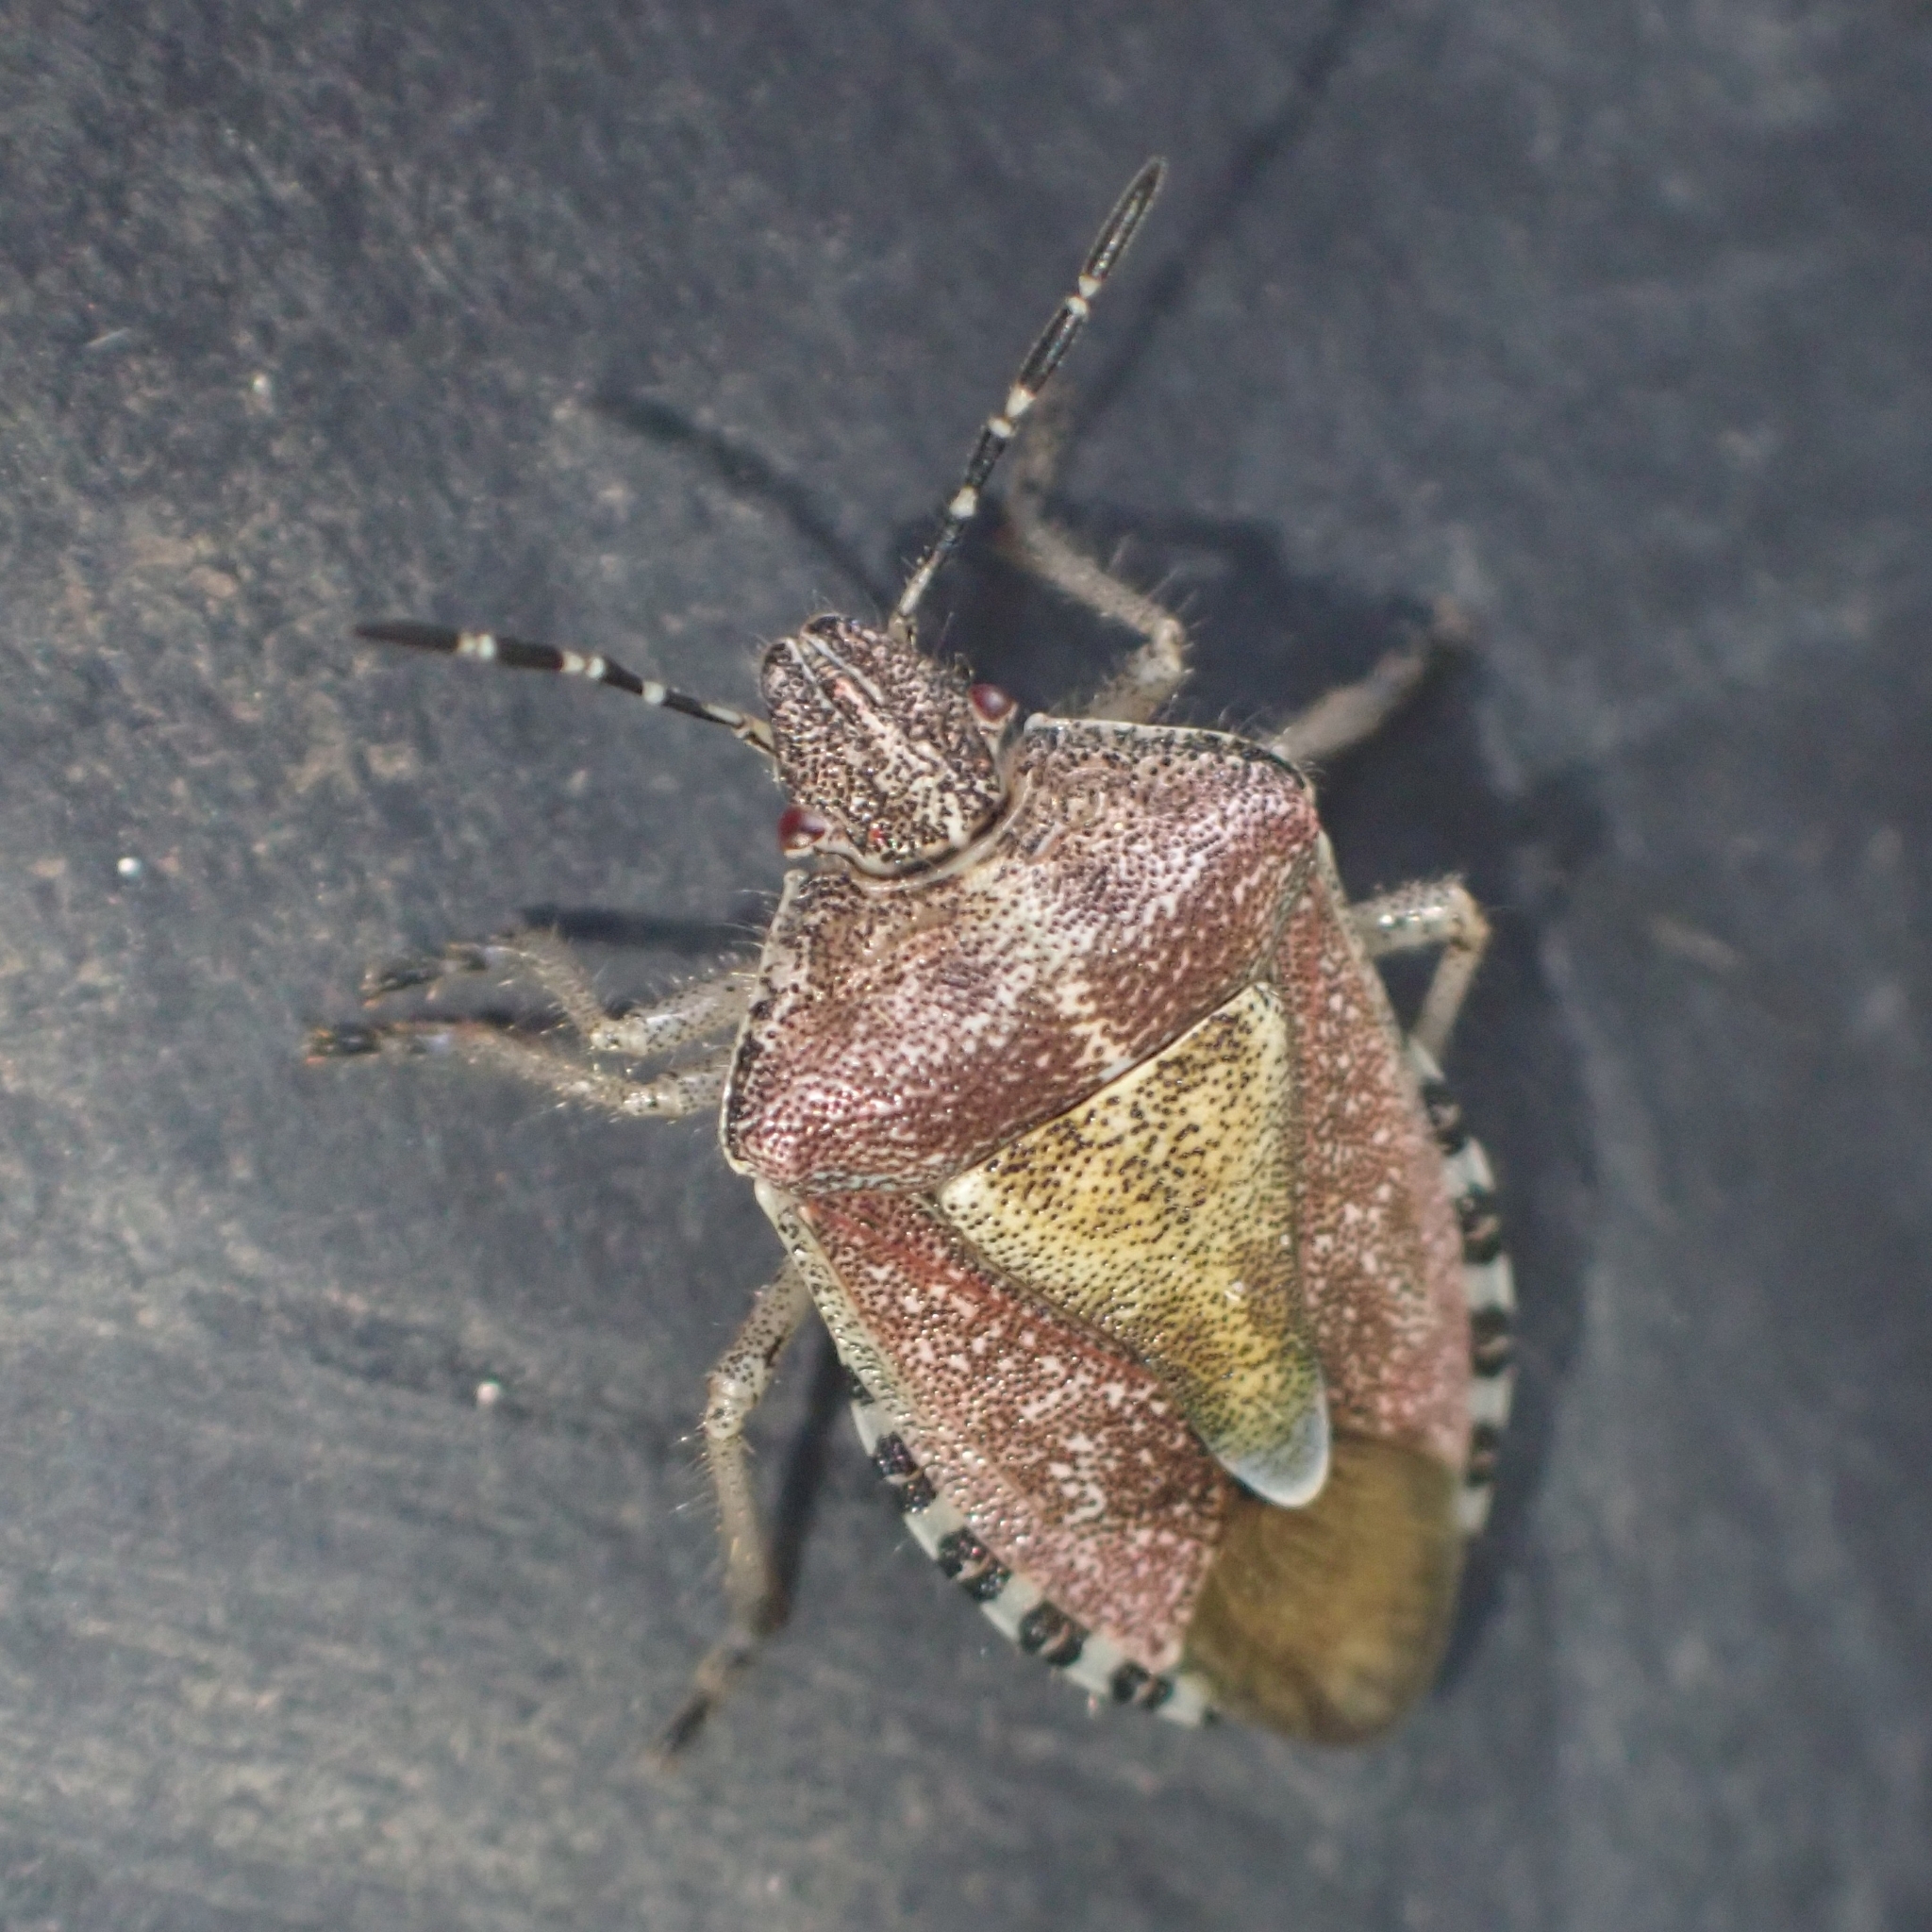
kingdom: Animalia
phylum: Arthropoda
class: Insecta
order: Hemiptera
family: Pentatomidae
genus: Dolycoris
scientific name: Dolycoris baccarum
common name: Sloe bug
